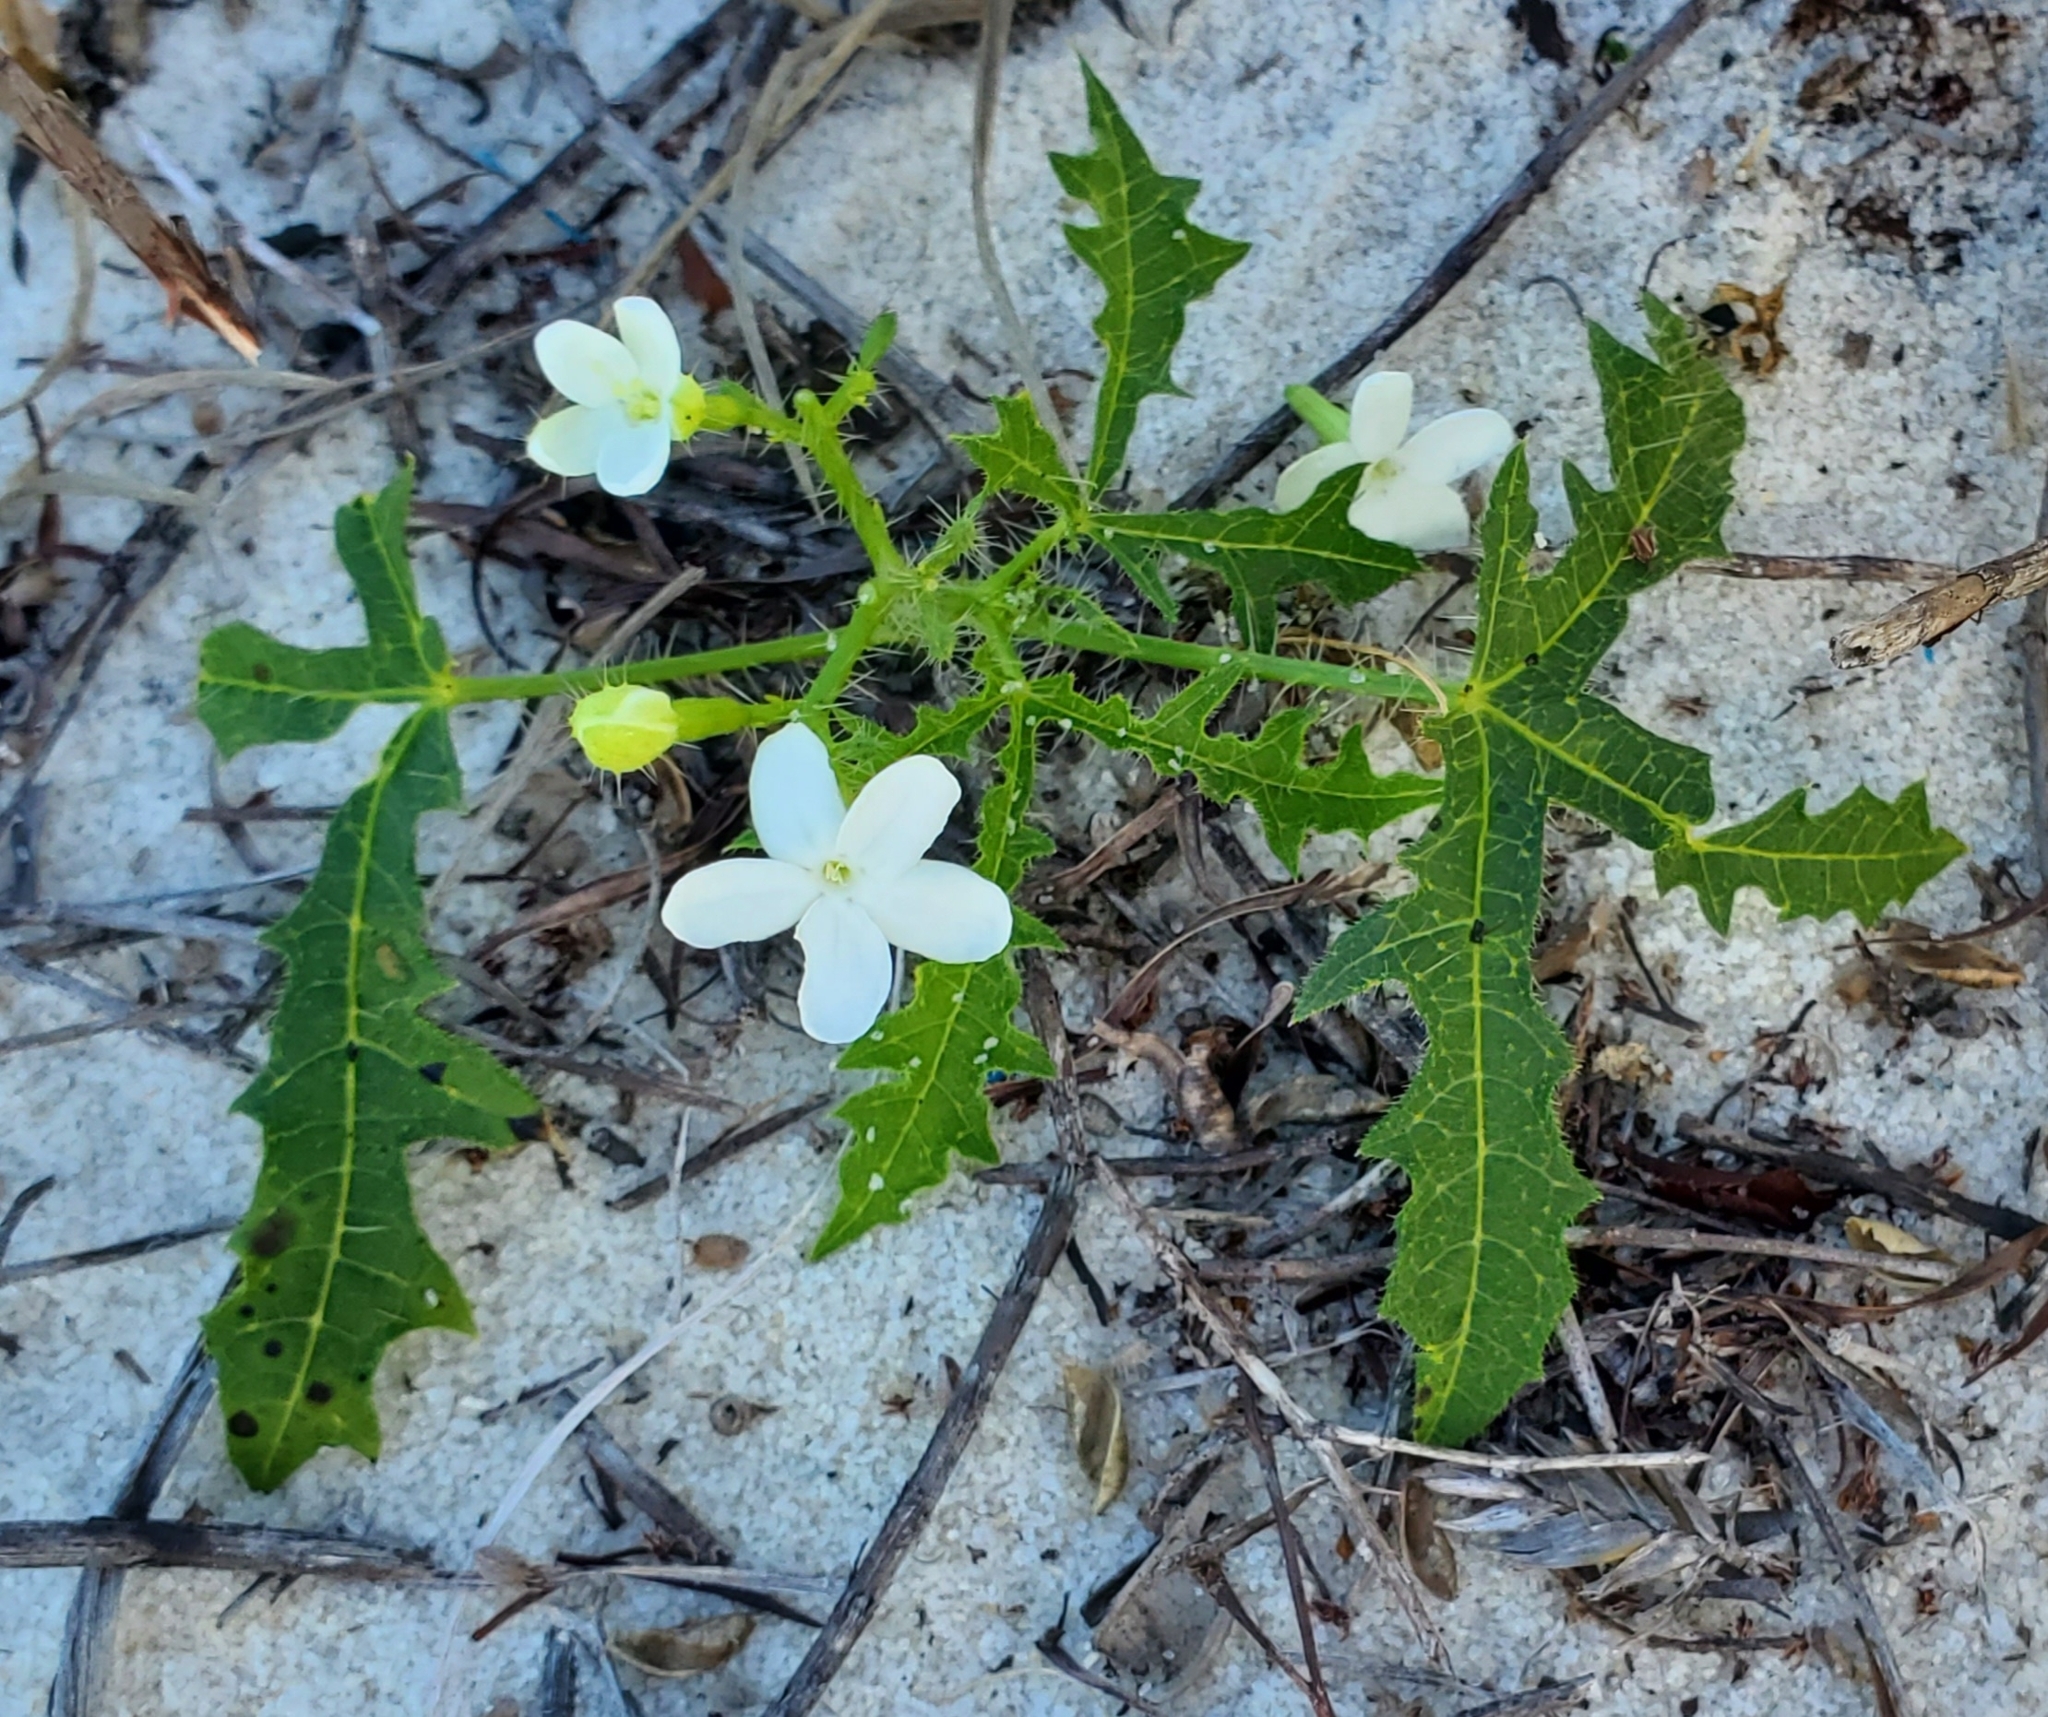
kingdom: Plantae
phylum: Tracheophyta
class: Magnoliopsida
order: Malpighiales
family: Euphorbiaceae
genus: Cnidoscolus
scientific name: Cnidoscolus stimulosus
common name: Bull-nettle
